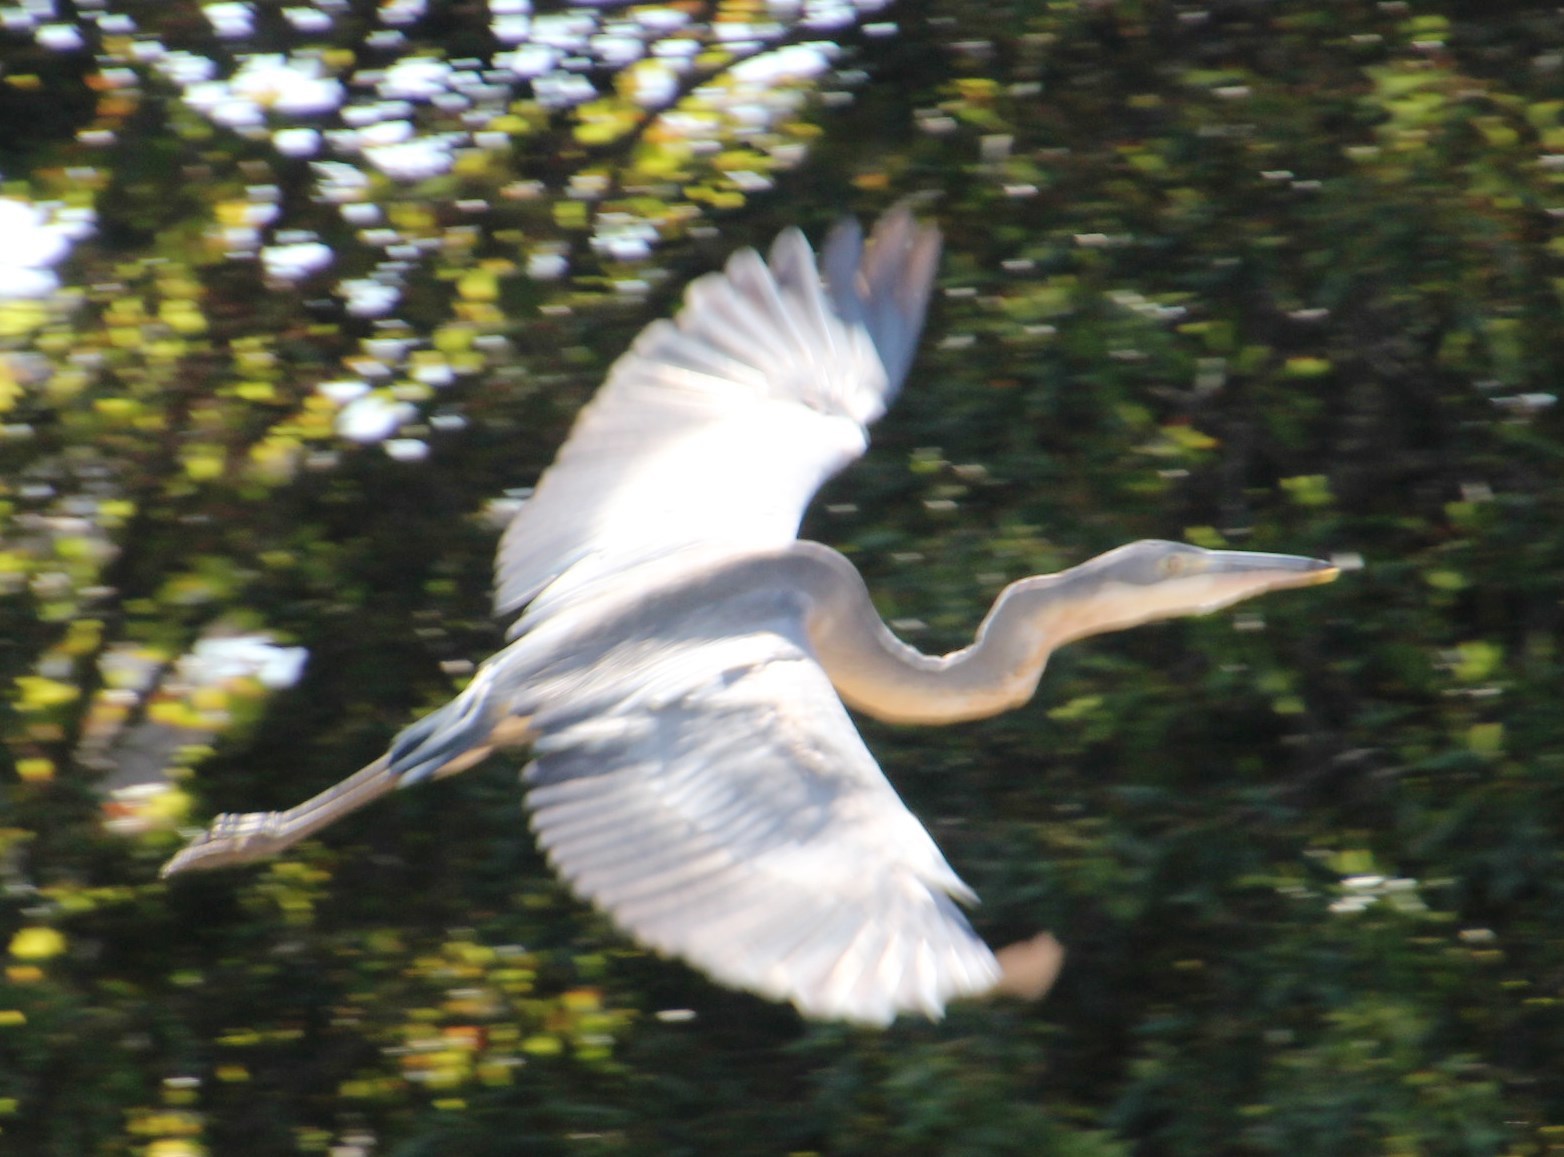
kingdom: Animalia
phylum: Chordata
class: Aves
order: Pelecaniformes
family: Ardeidae
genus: Ardea
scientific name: Ardea melanocephala
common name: Black-headed heron
